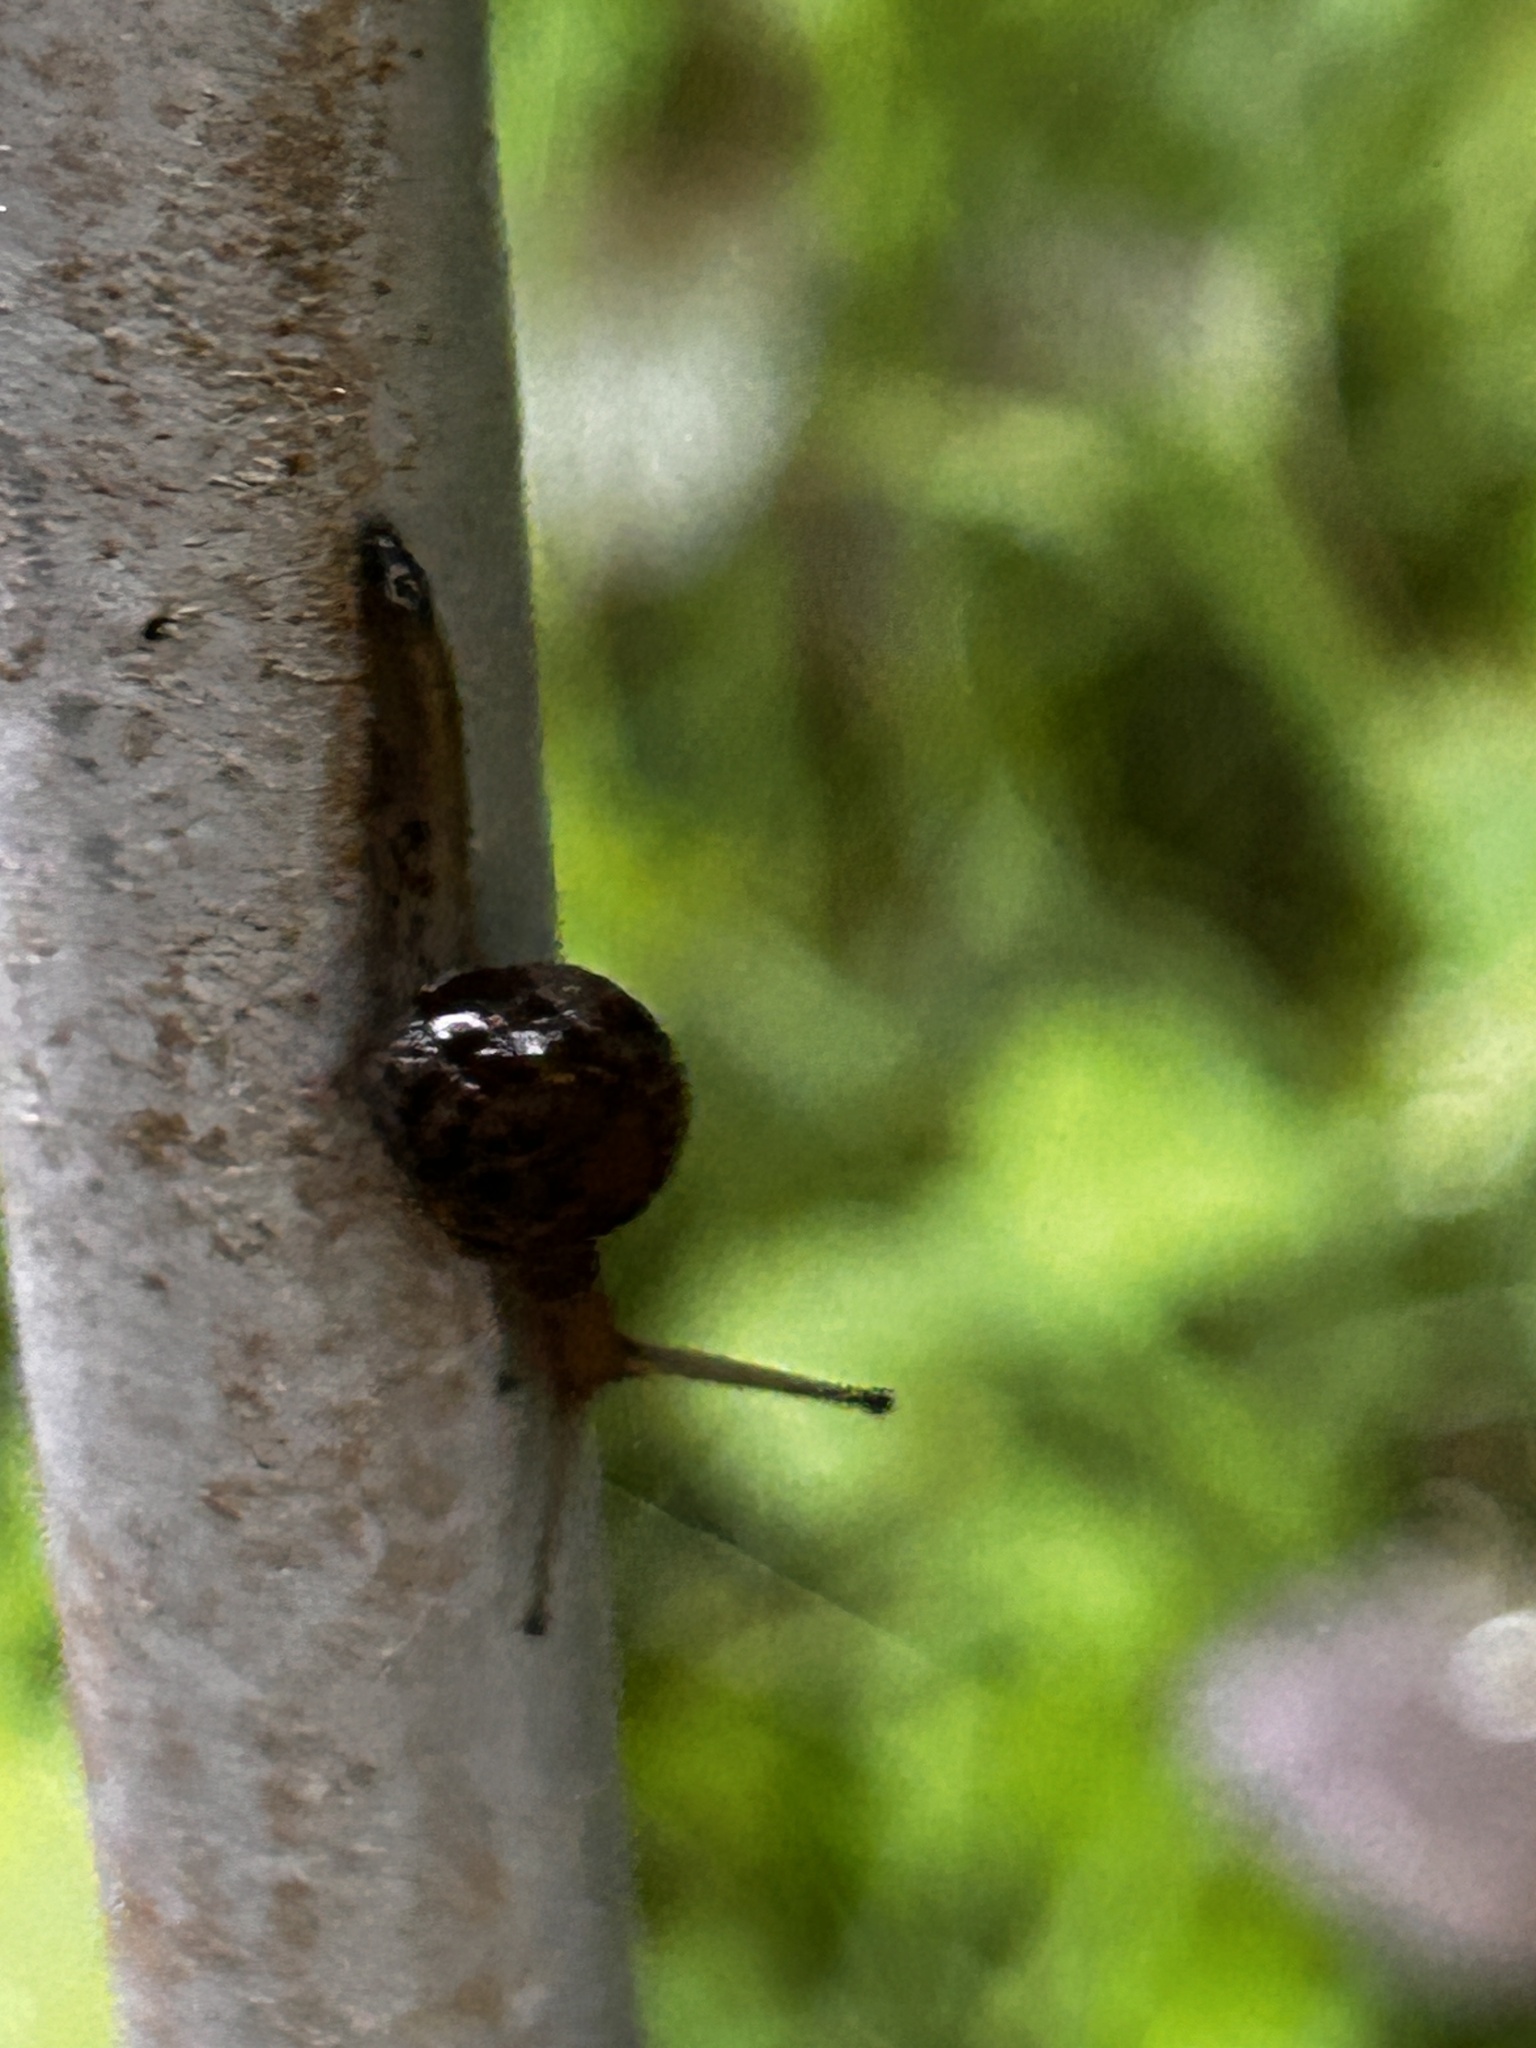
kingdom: Animalia
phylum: Mollusca
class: Gastropoda
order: Stylommatophora
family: Ariophantidae
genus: Megaustenia
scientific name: Megaustenia imperator
